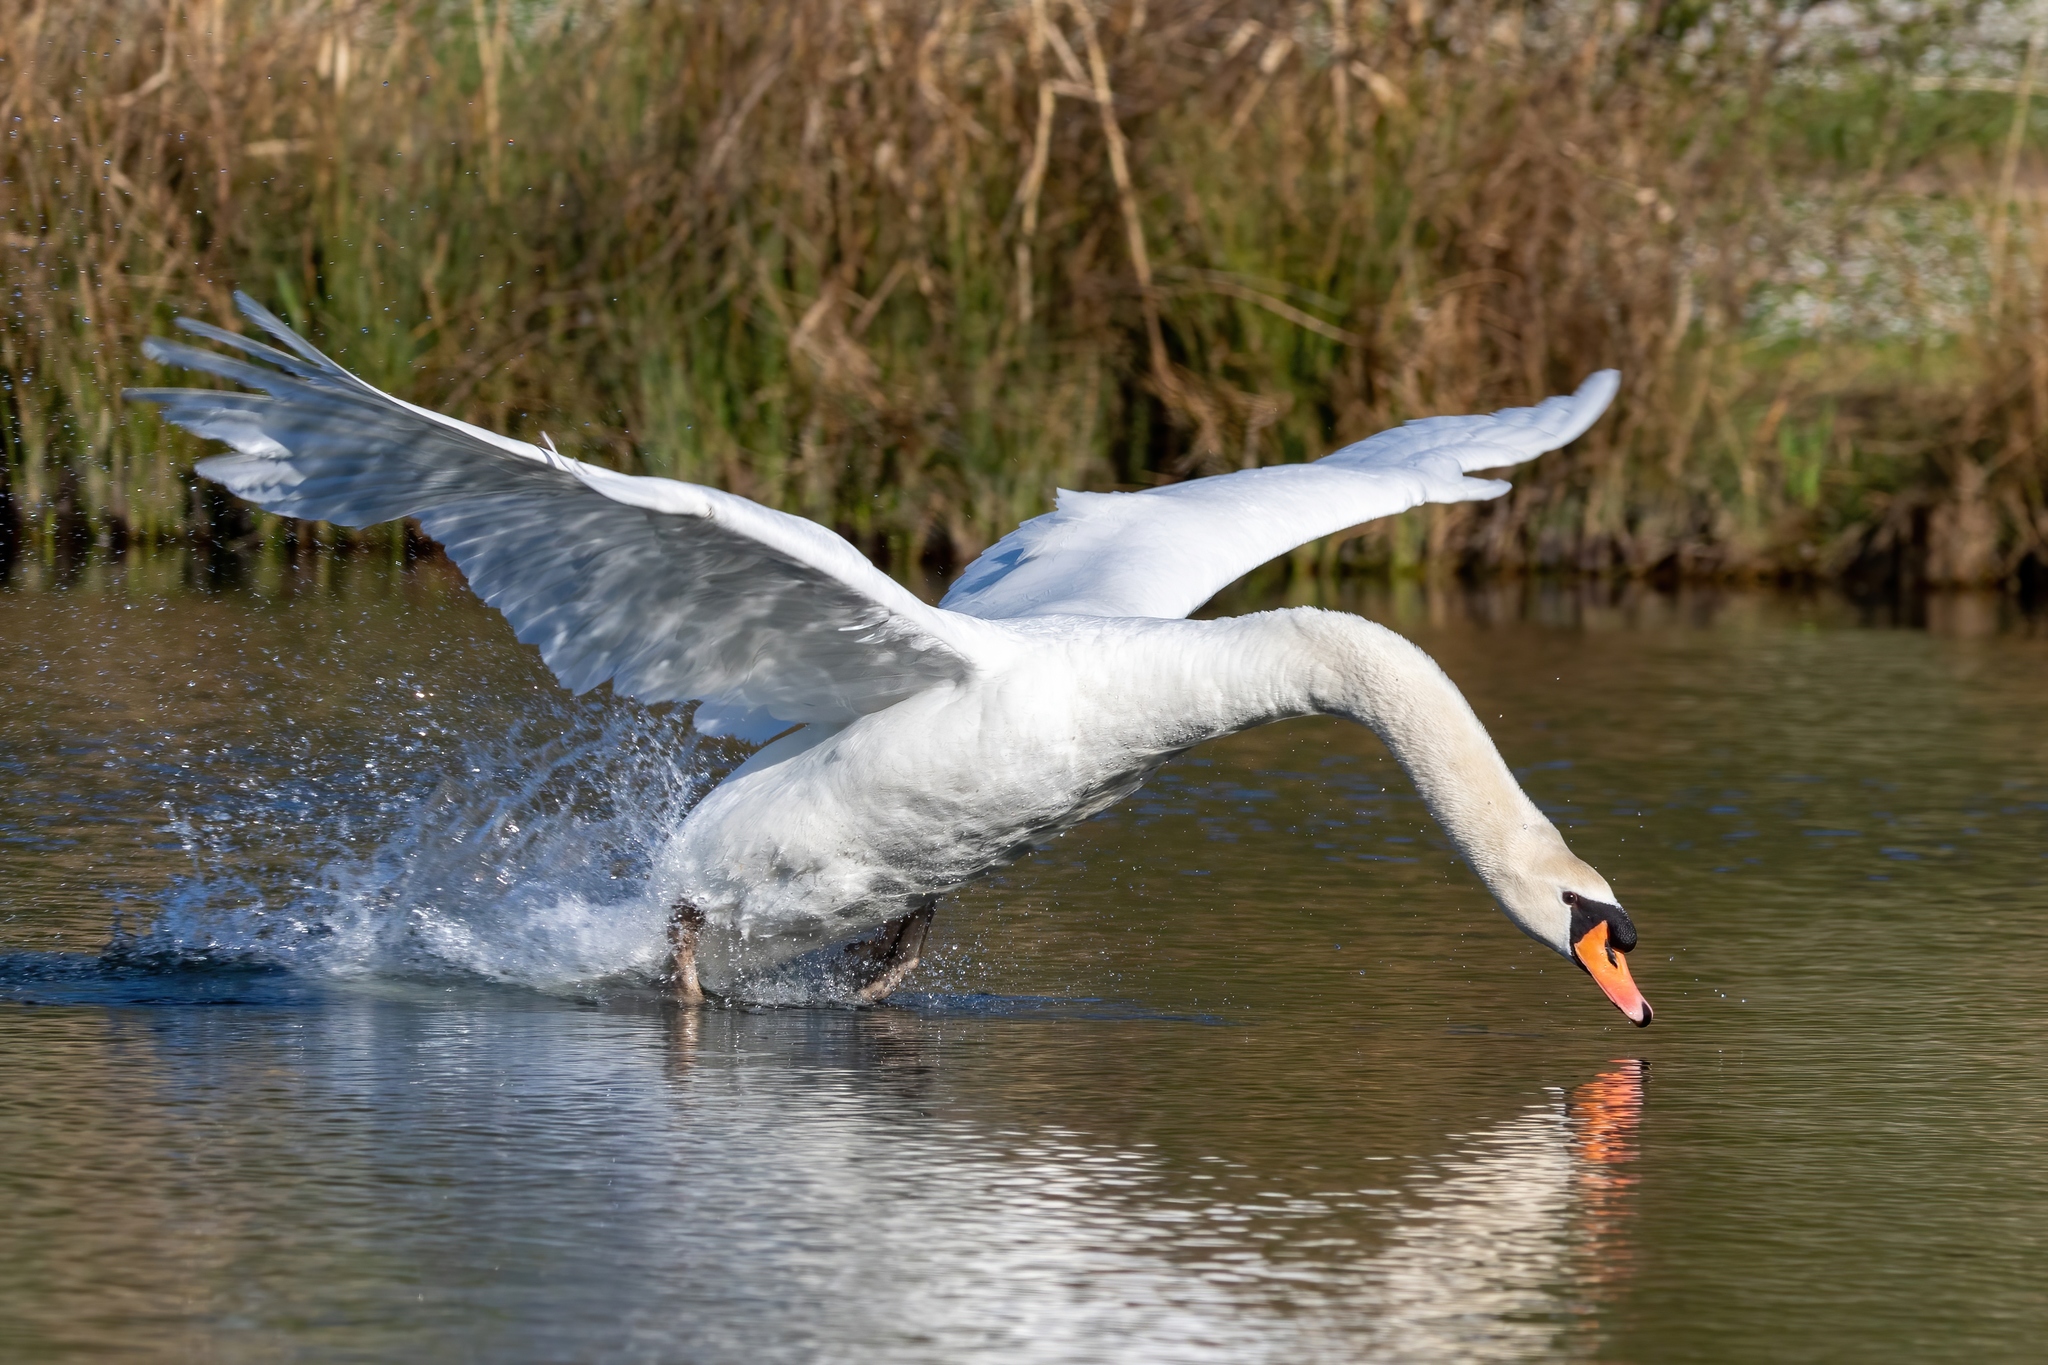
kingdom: Animalia
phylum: Chordata
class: Aves
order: Anseriformes
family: Anatidae
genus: Cygnus
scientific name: Cygnus olor
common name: Mute swan
